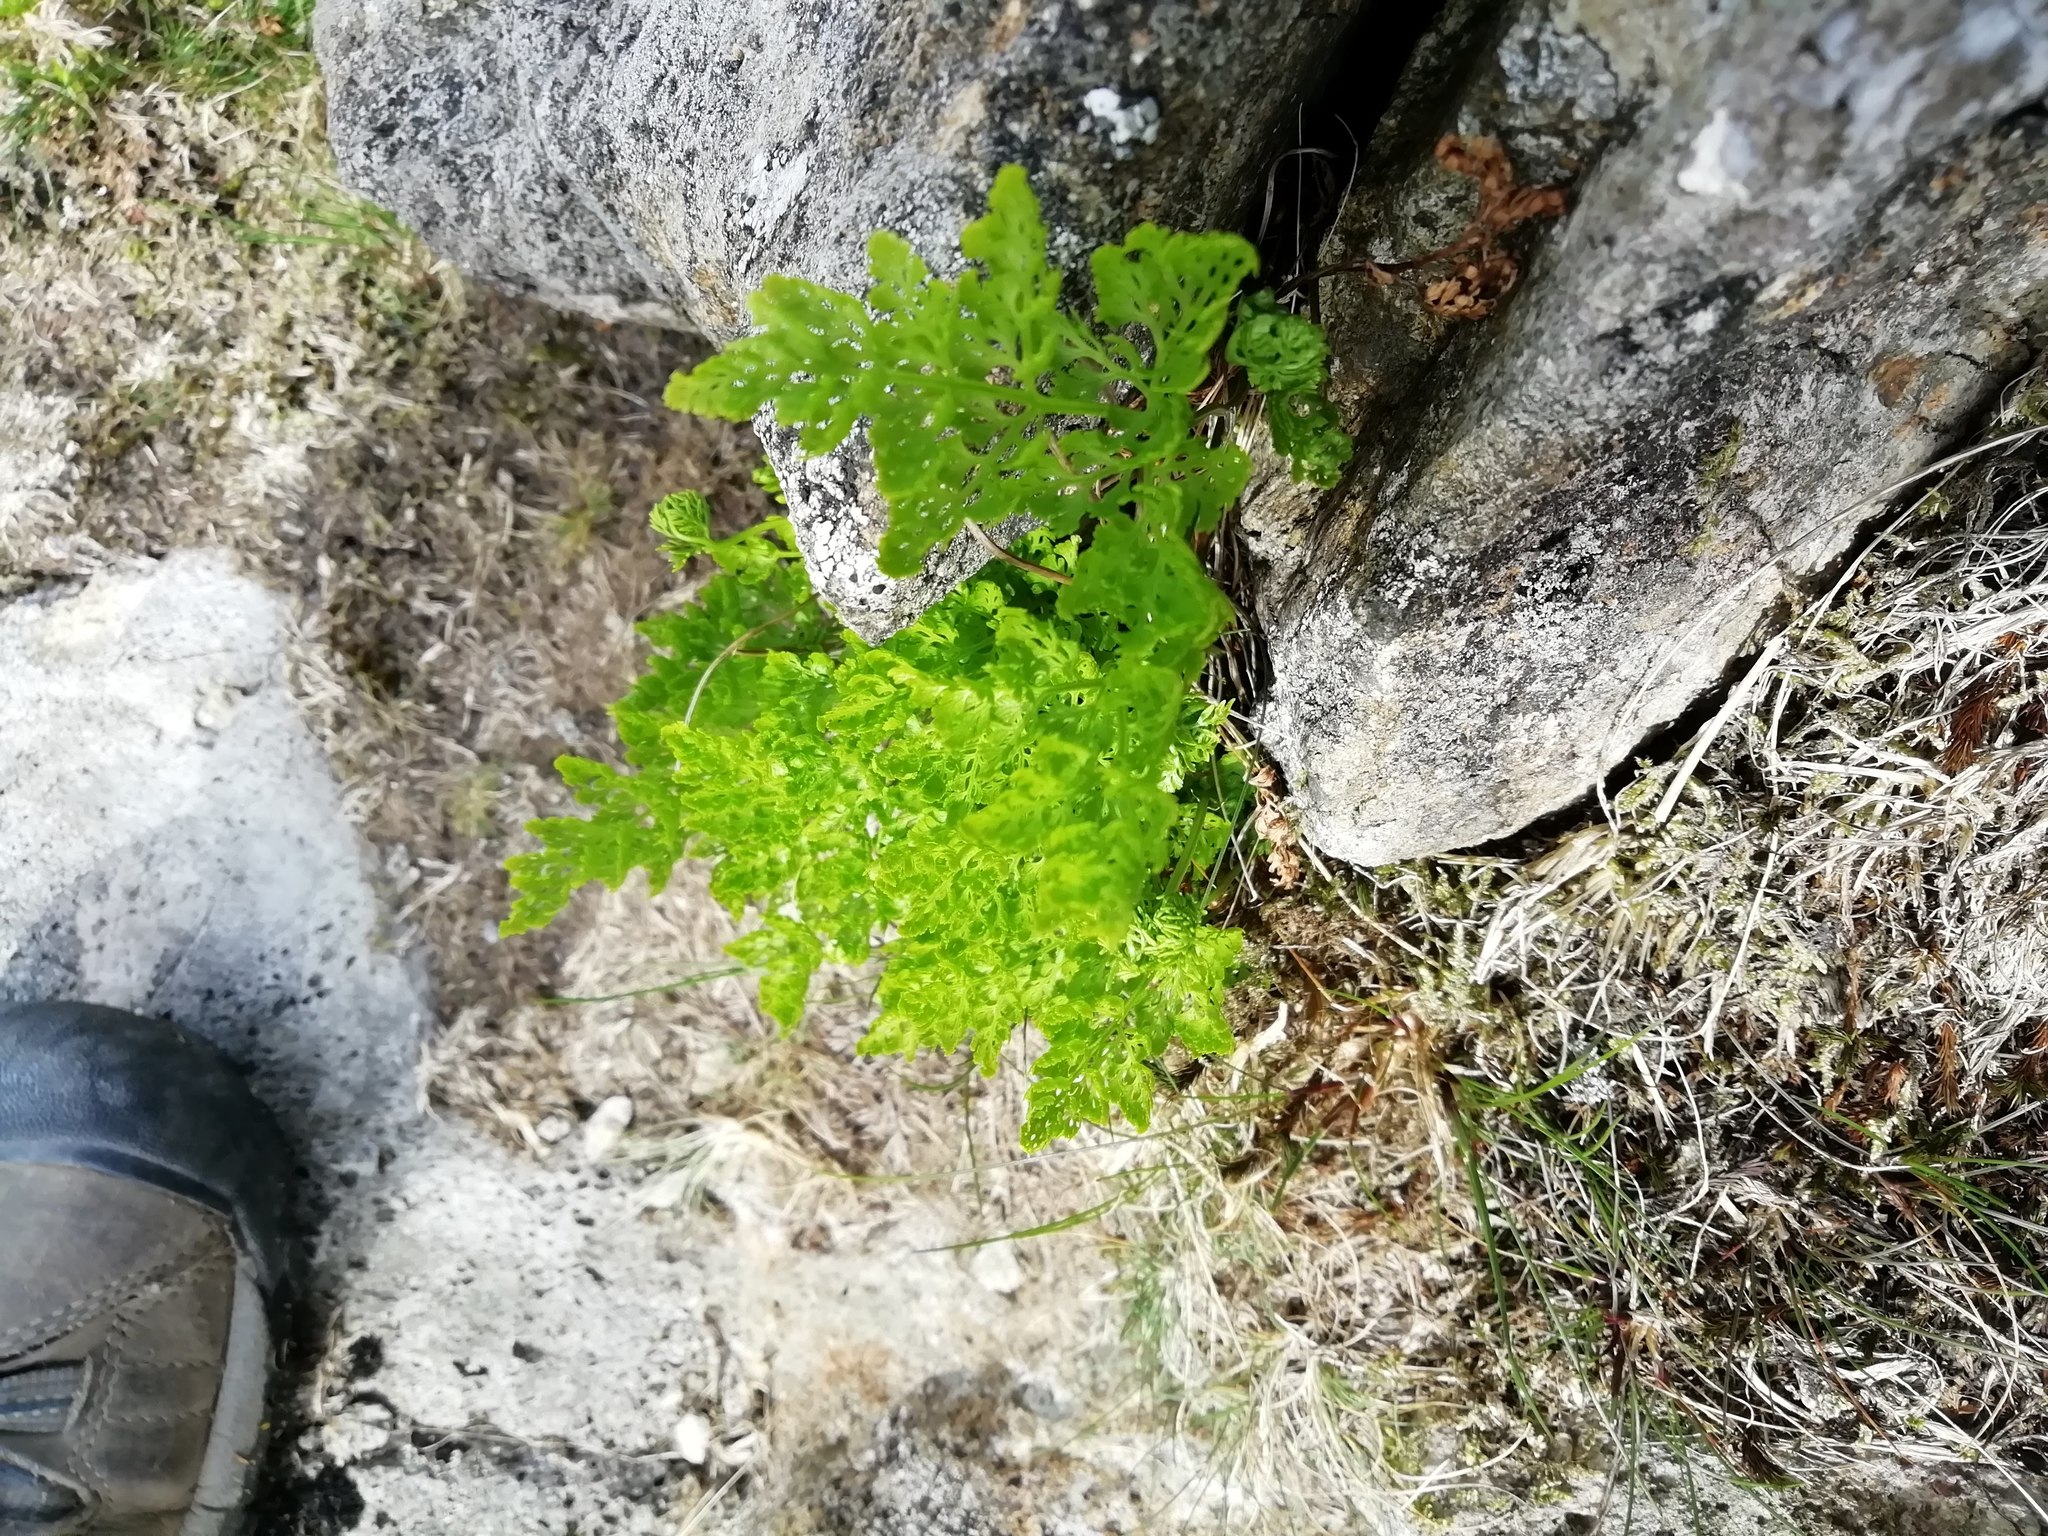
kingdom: Plantae
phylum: Tracheophyta
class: Polypodiopsida
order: Polypodiales
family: Pteridaceae
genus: Cryptogramma
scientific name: Cryptogramma crispa
